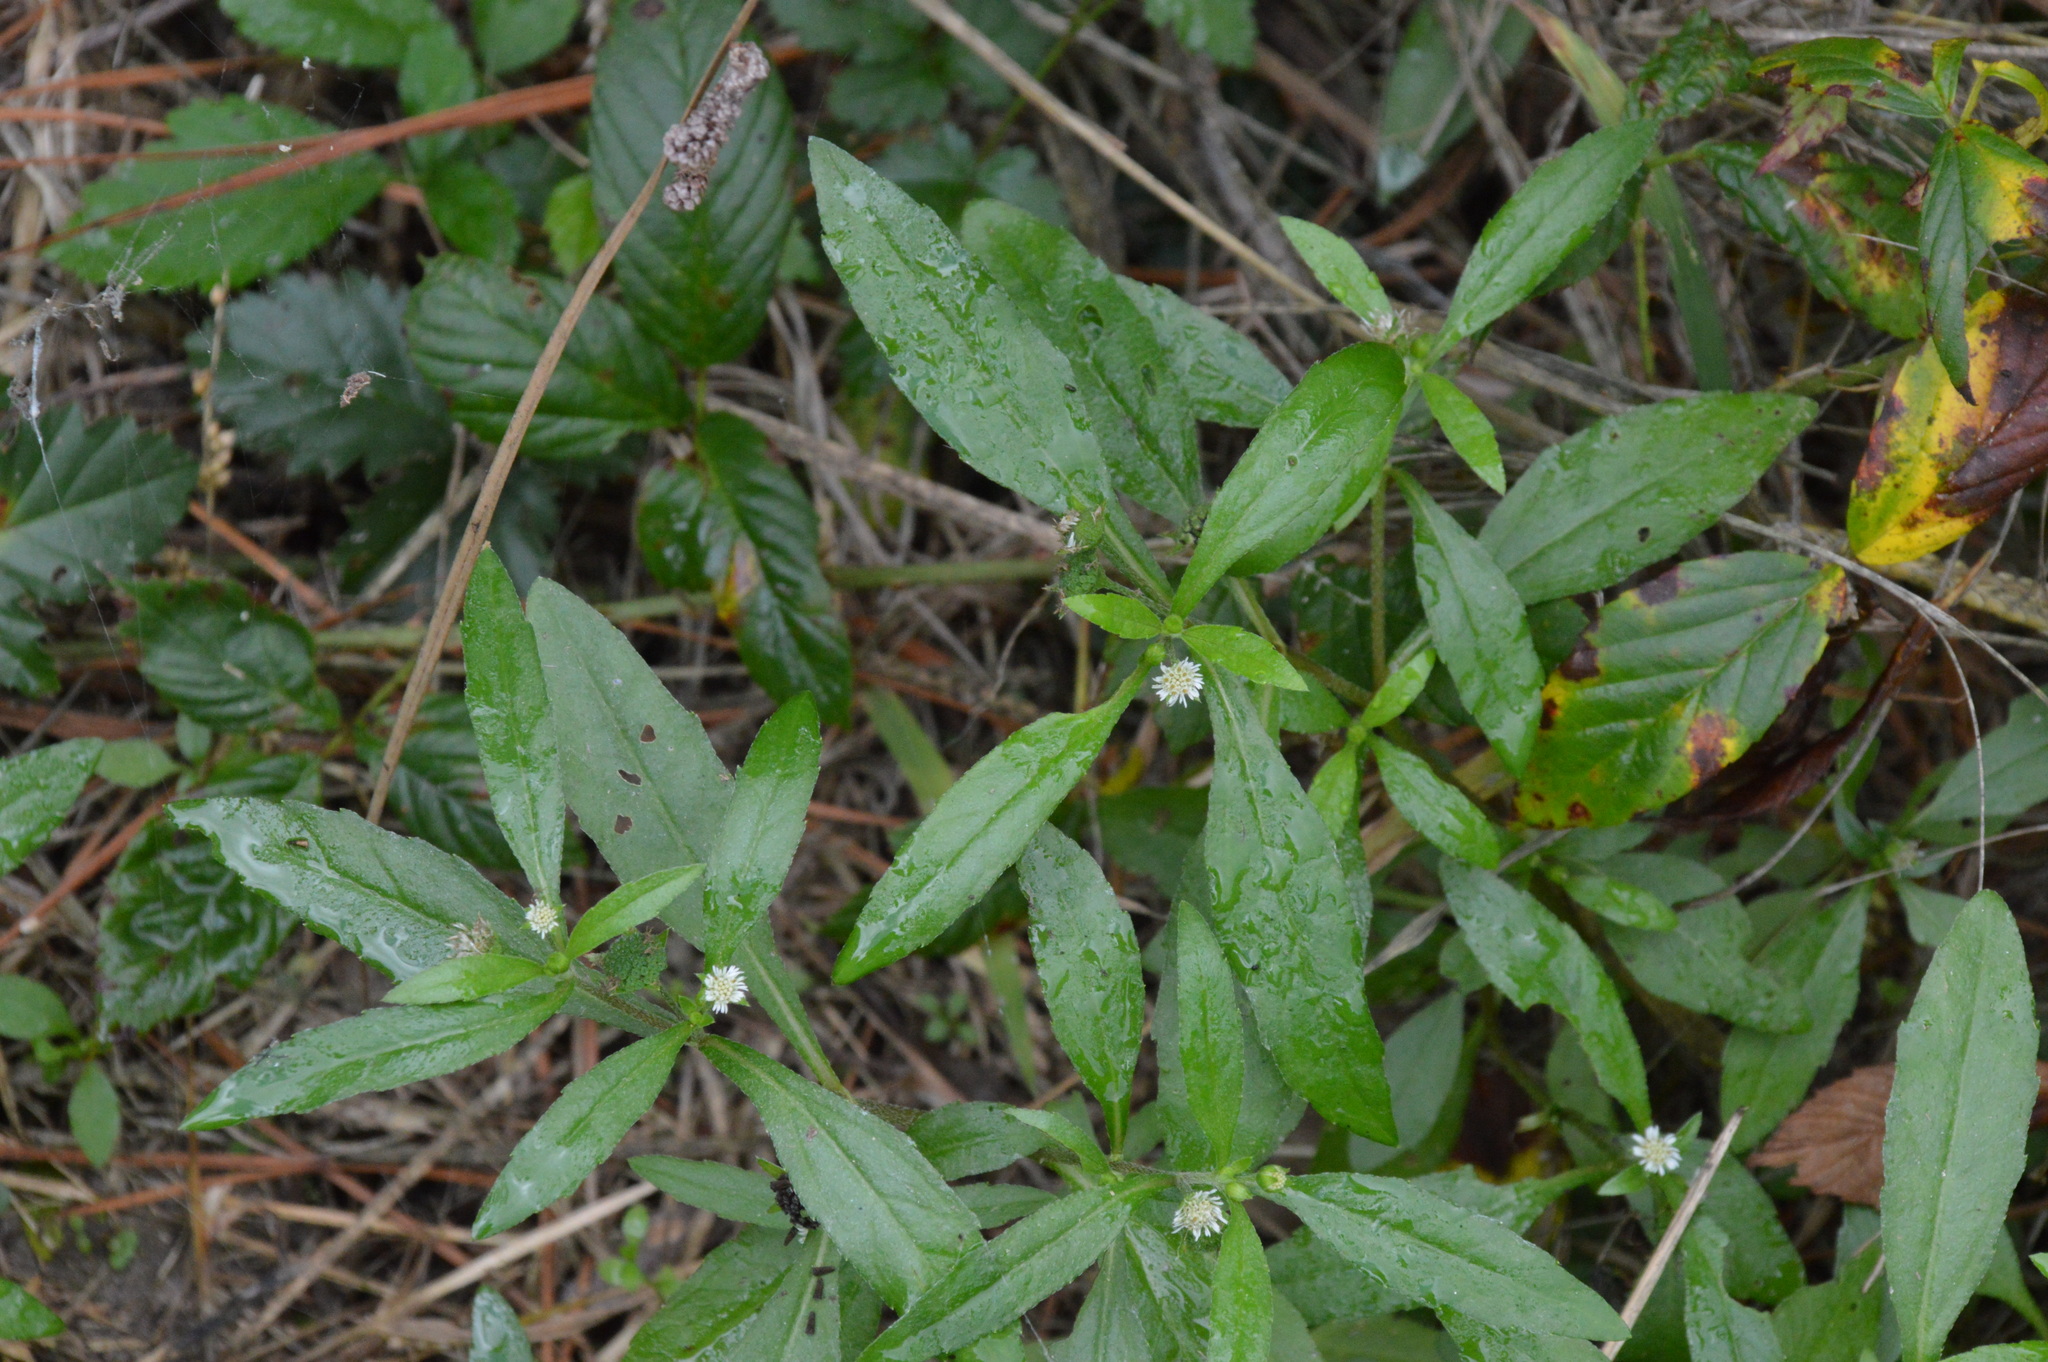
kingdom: Plantae
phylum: Tracheophyta
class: Magnoliopsida
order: Asterales
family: Asteraceae
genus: Eclipta
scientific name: Eclipta prostrata
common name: False daisy
